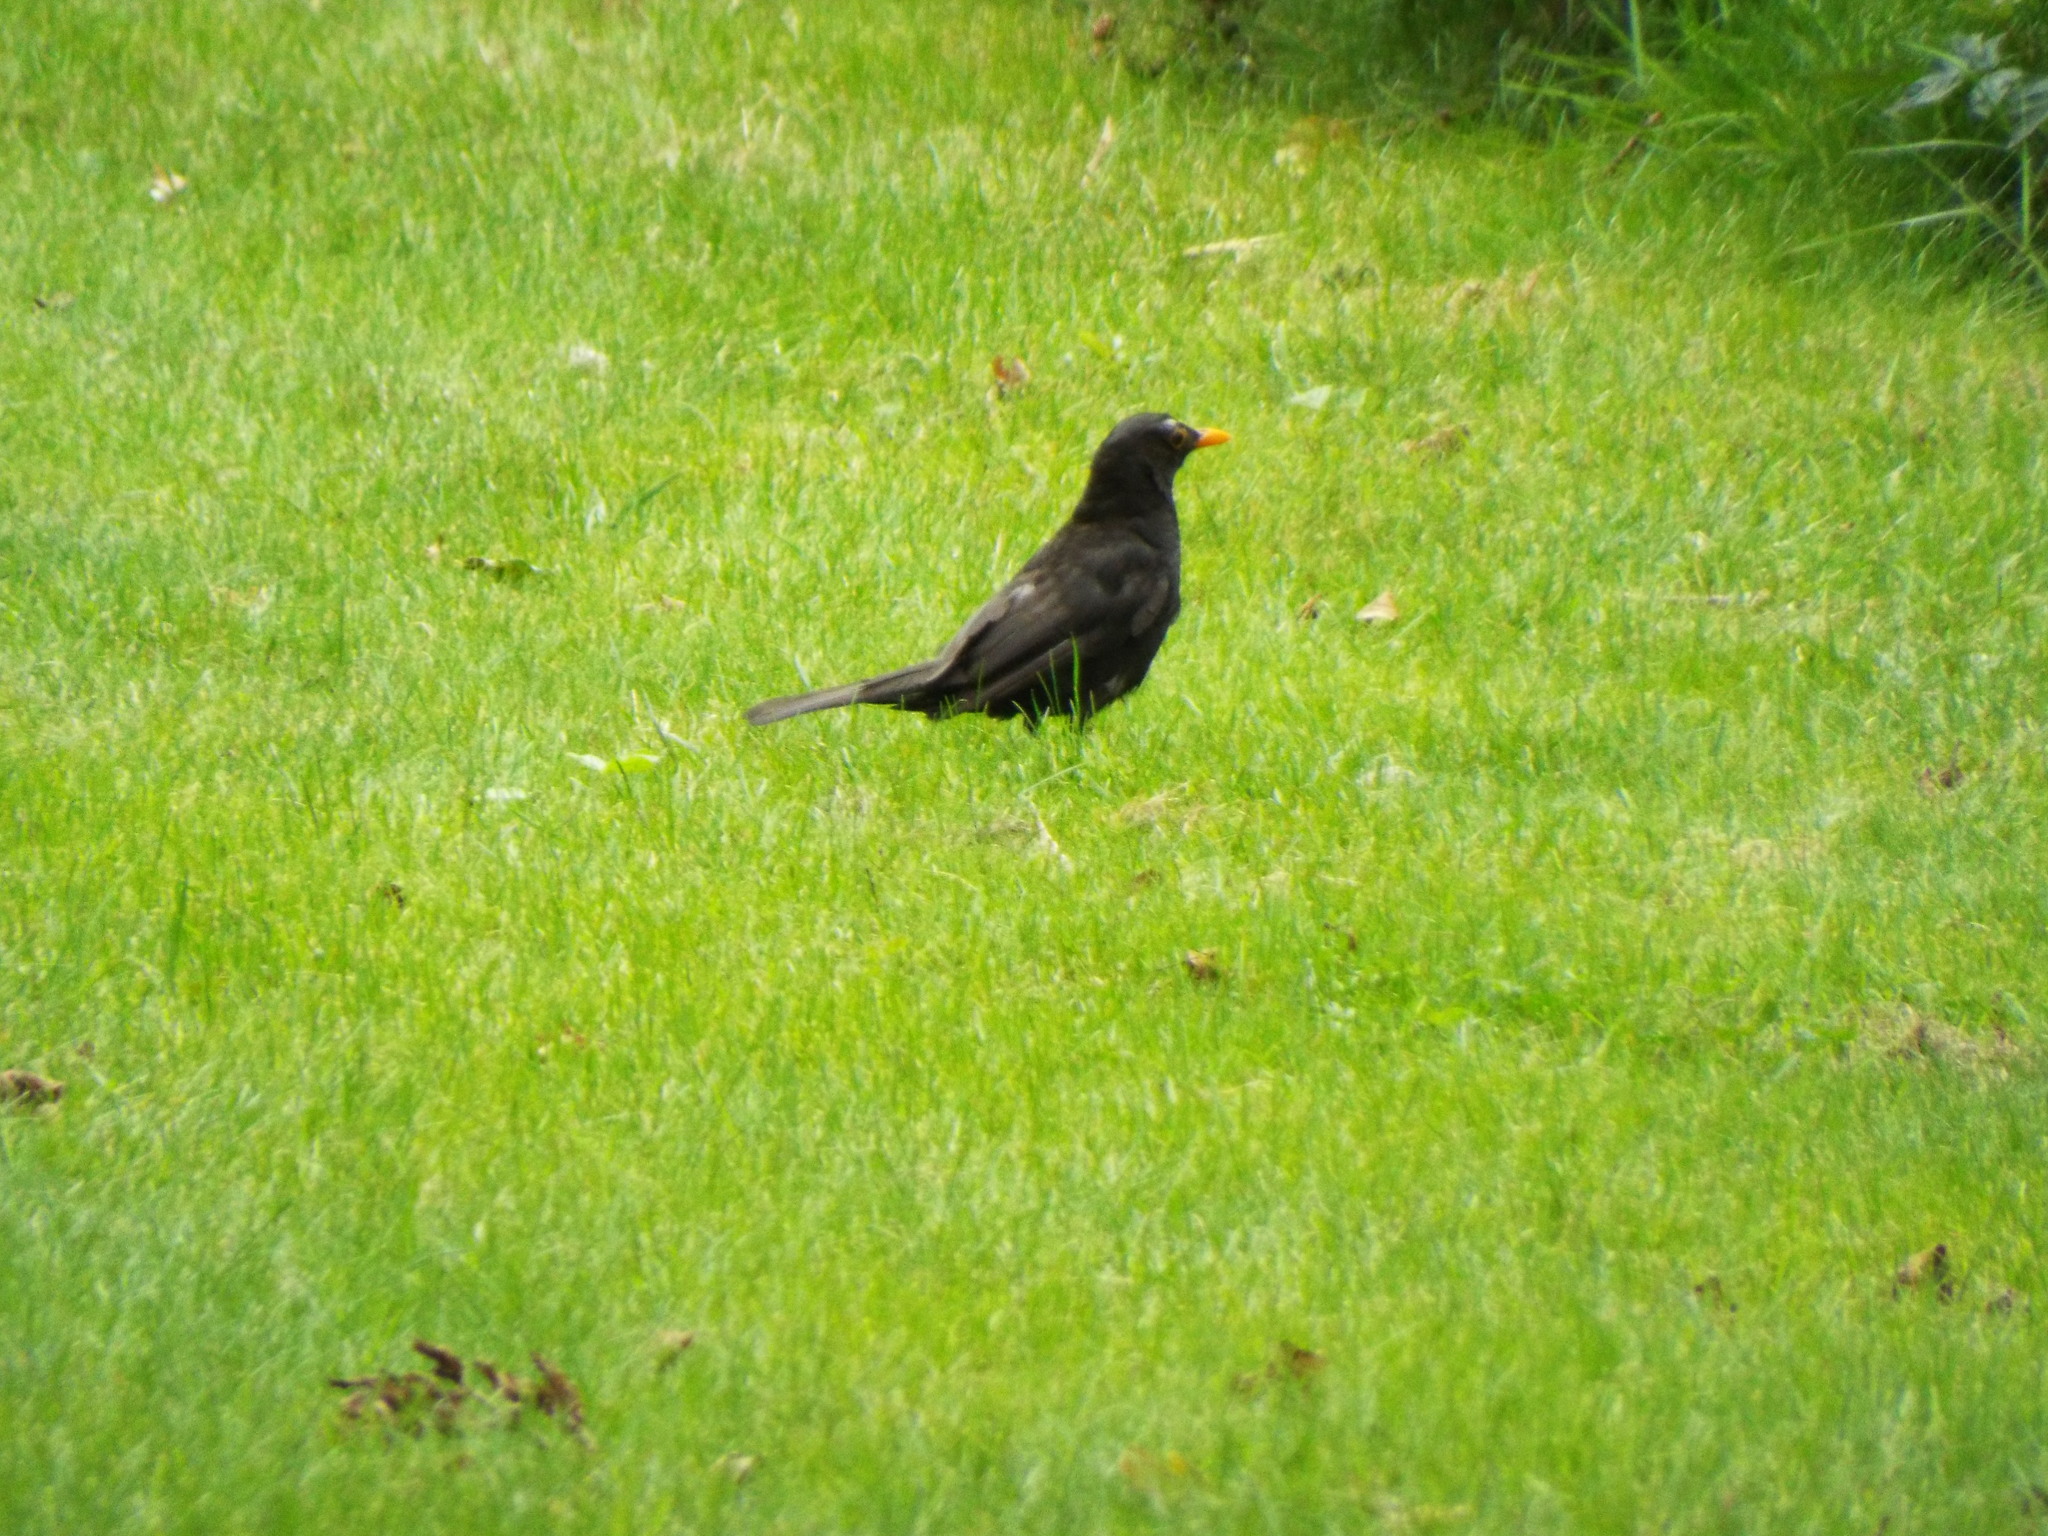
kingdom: Animalia
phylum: Chordata
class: Aves
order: Passeriformes
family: Turdidae
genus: Turdus
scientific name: Turdus merula
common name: Common blackbird
